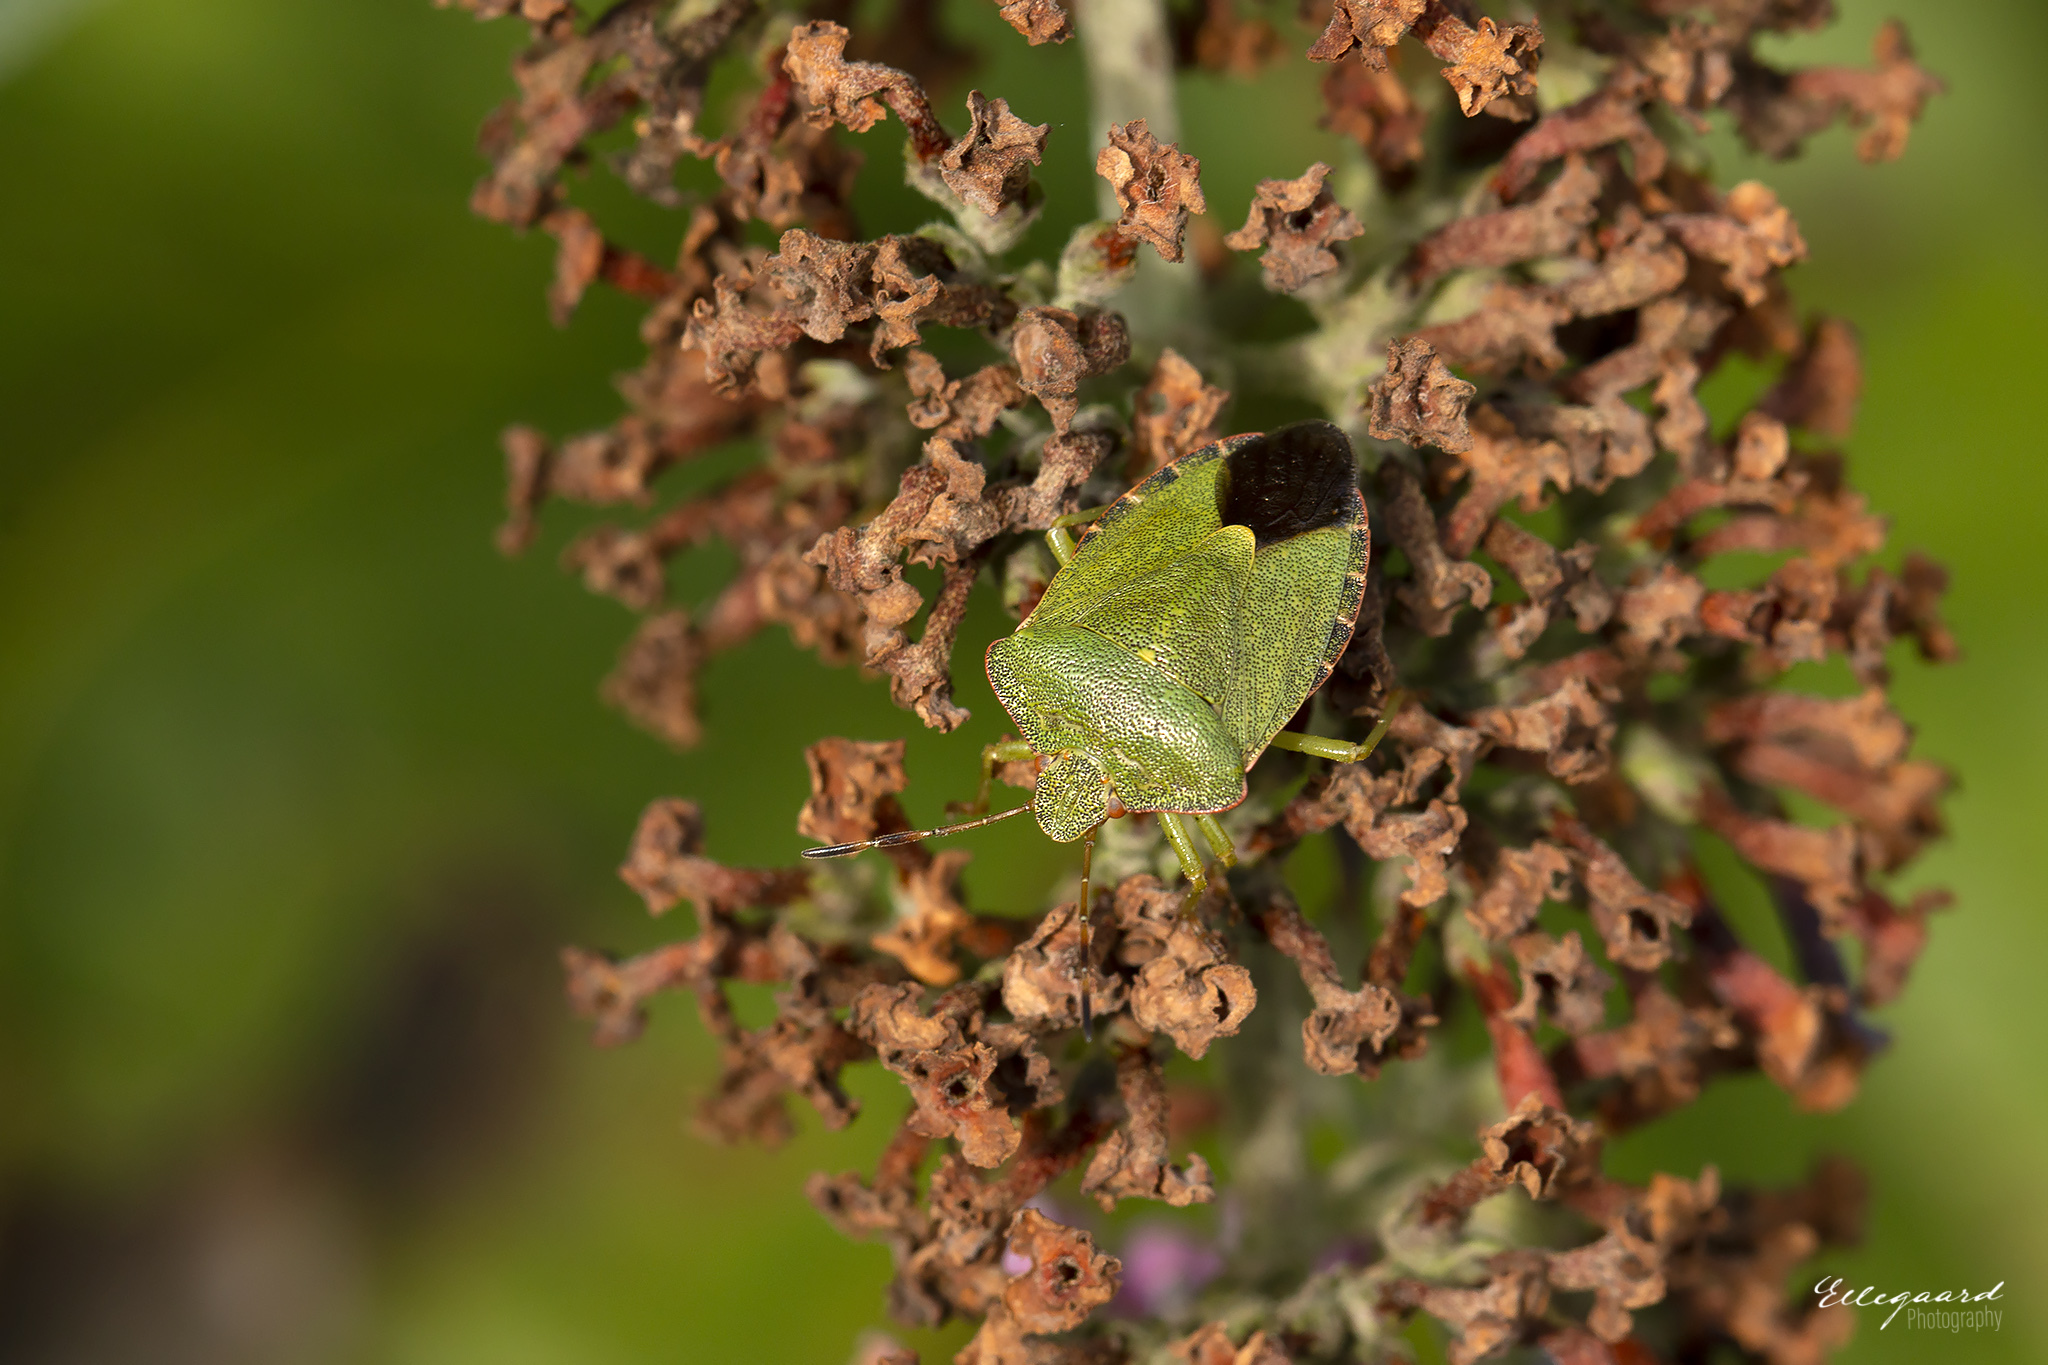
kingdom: Animalia
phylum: Arthropoda
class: Insecta
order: Hemiptera
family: Pentatomidae
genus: Palomena
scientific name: Palomena prasina
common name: Green shieldbug
